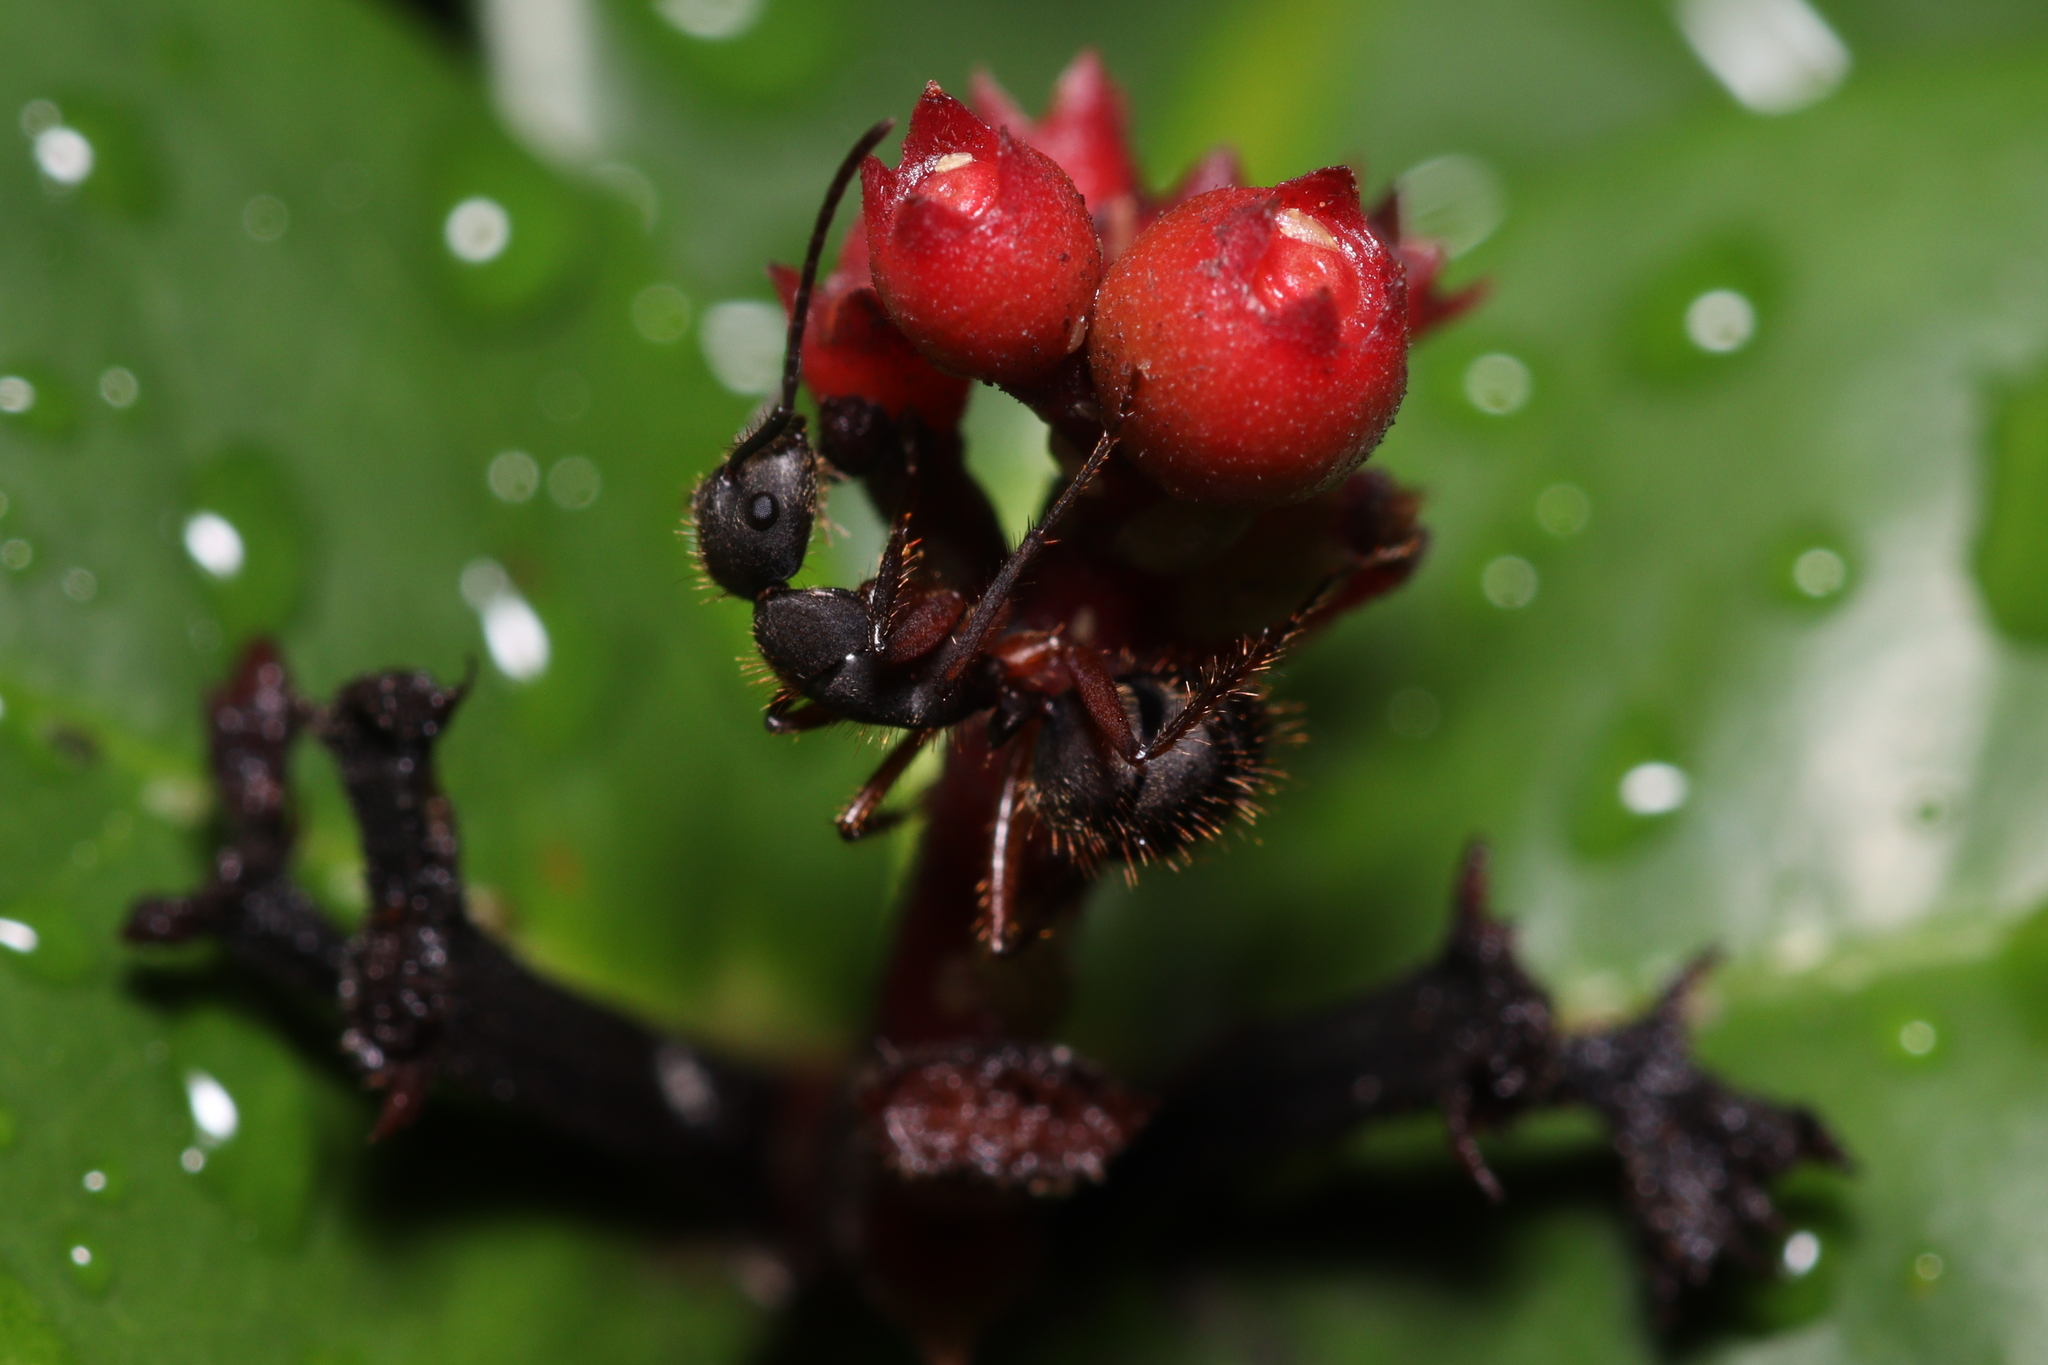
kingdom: Animalia
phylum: Arthropoda
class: Insecta
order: Hymenoptera
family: Formicidae
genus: Camponotus
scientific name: Camponotus rufipes
